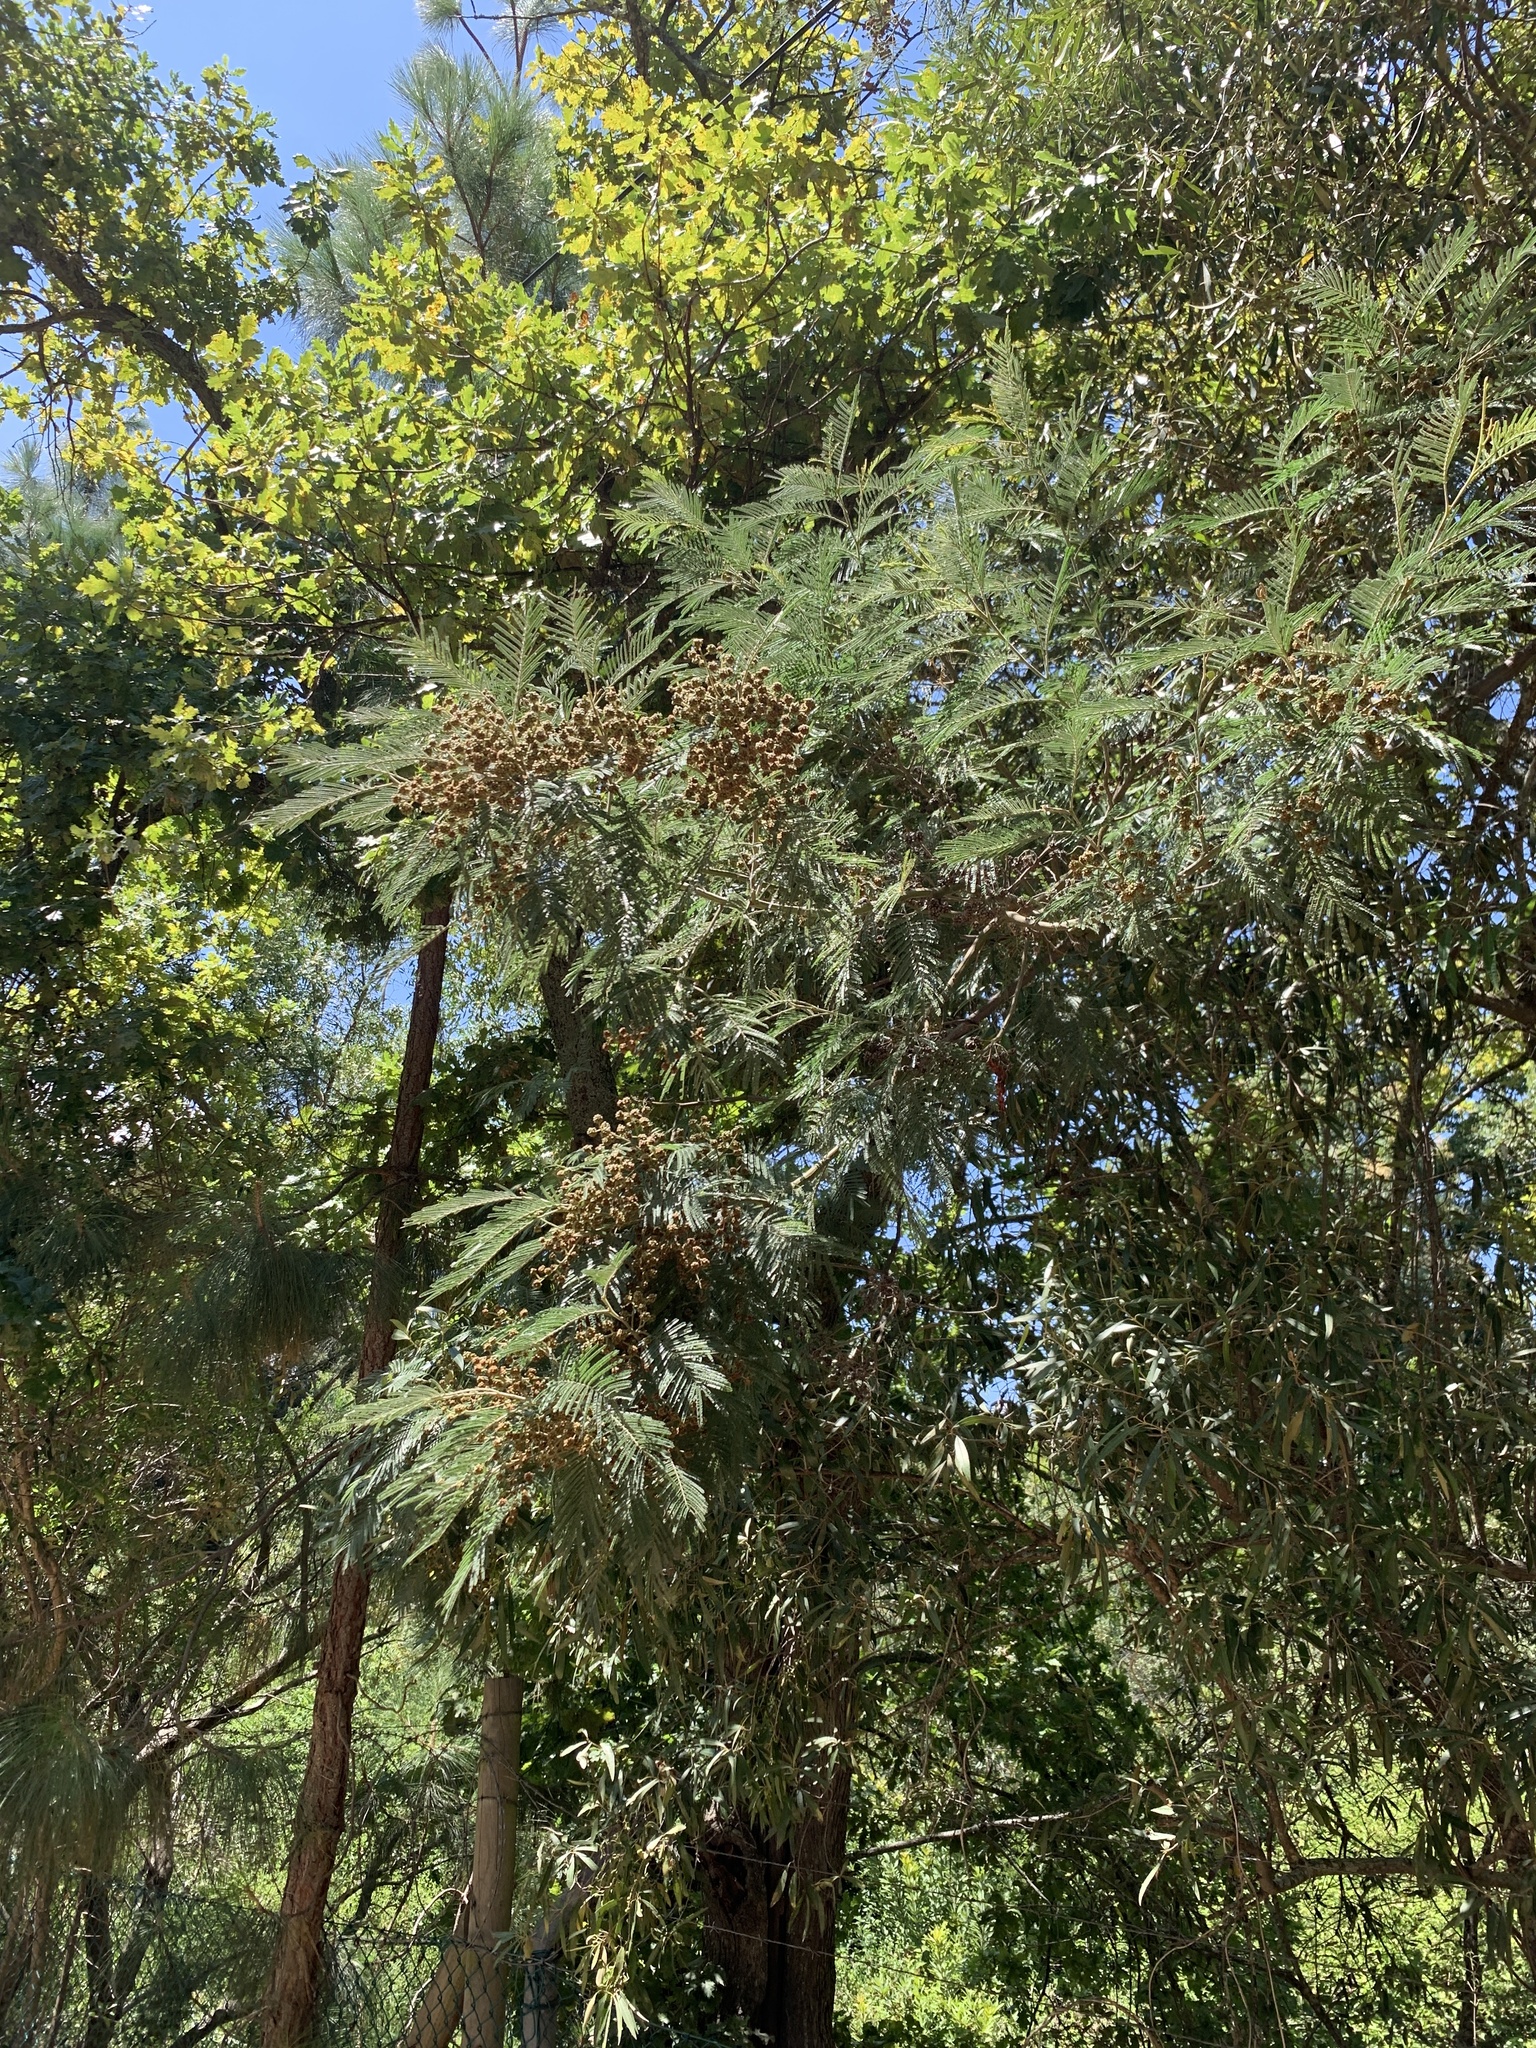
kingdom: Plantae
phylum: Tracheophyta
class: Magnoliopsida
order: Fabales
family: Fabaceae
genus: Acacia
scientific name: Acacia mearnsii
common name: Black wattle
